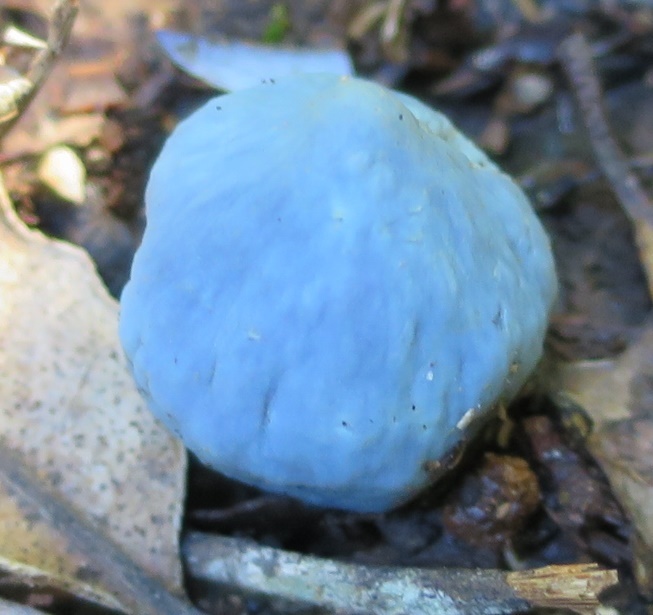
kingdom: Fungi
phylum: Basidiomycota
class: Agaricomycetes
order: Agaricales
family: Agaricaceae
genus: Clavogaster
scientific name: Clavogaster virescens
